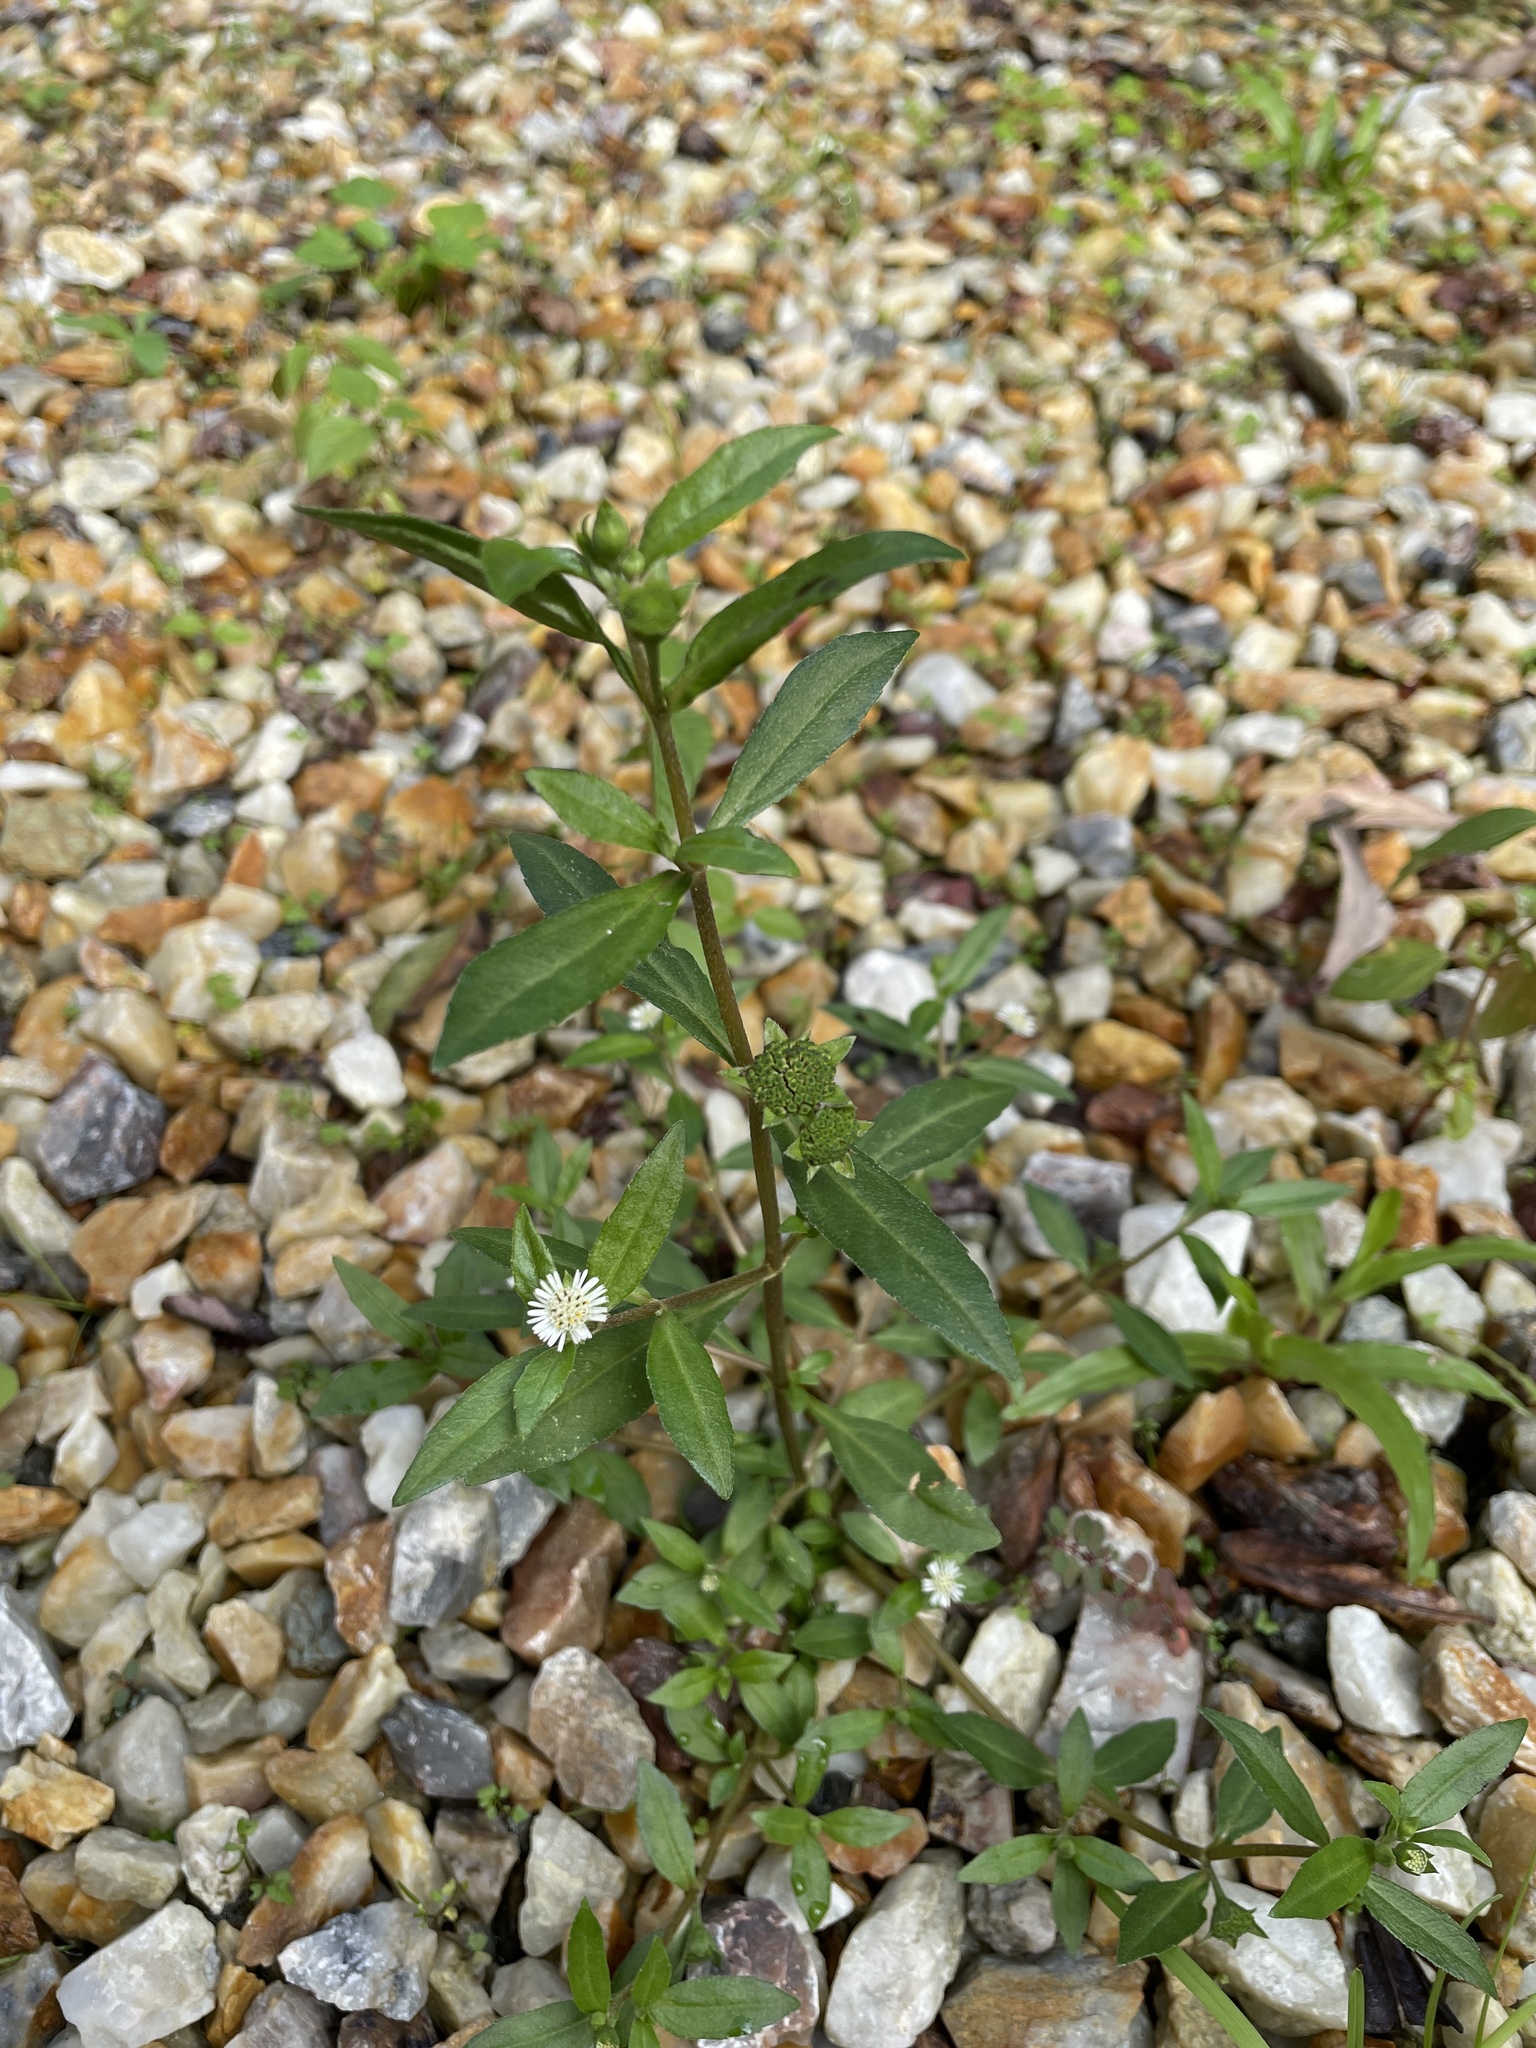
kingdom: Plantae
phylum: Tracheophyta
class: Magnoliopsida
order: Asterales
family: Asteraceae
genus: Eclipta
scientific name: Eclipta prostrata
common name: False daisy
